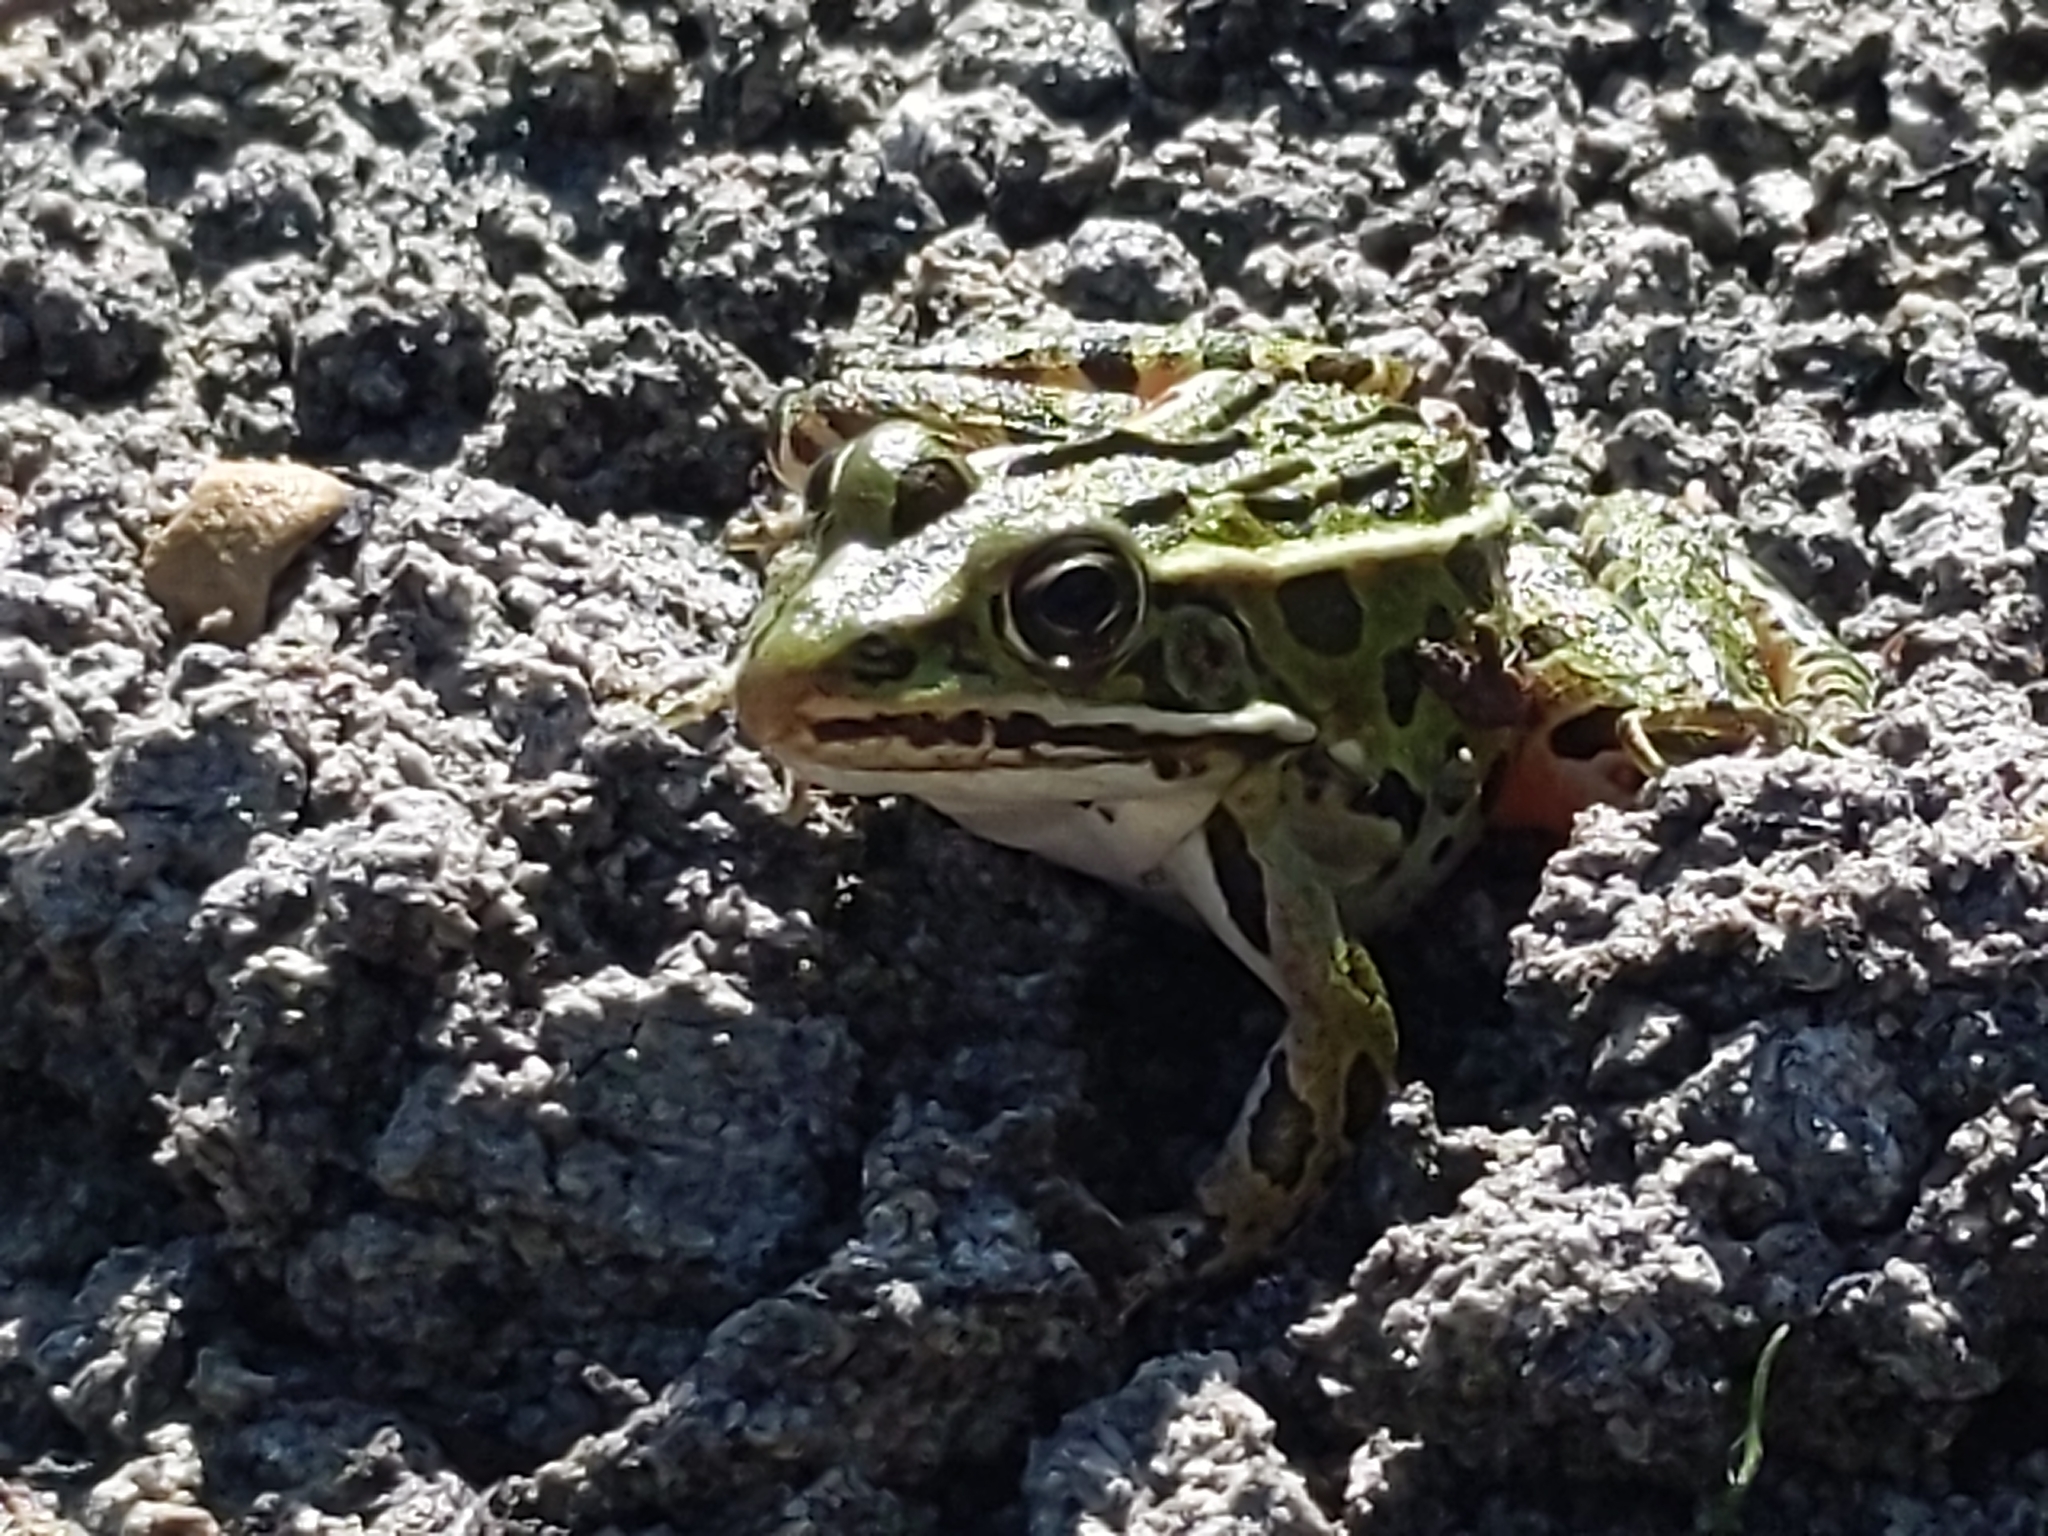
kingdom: Animalia
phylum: Chordata
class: Amphibia
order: Anura
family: Ranidae
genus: Lithobates
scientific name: Lithobates pipiens
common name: Northern leopard frog
